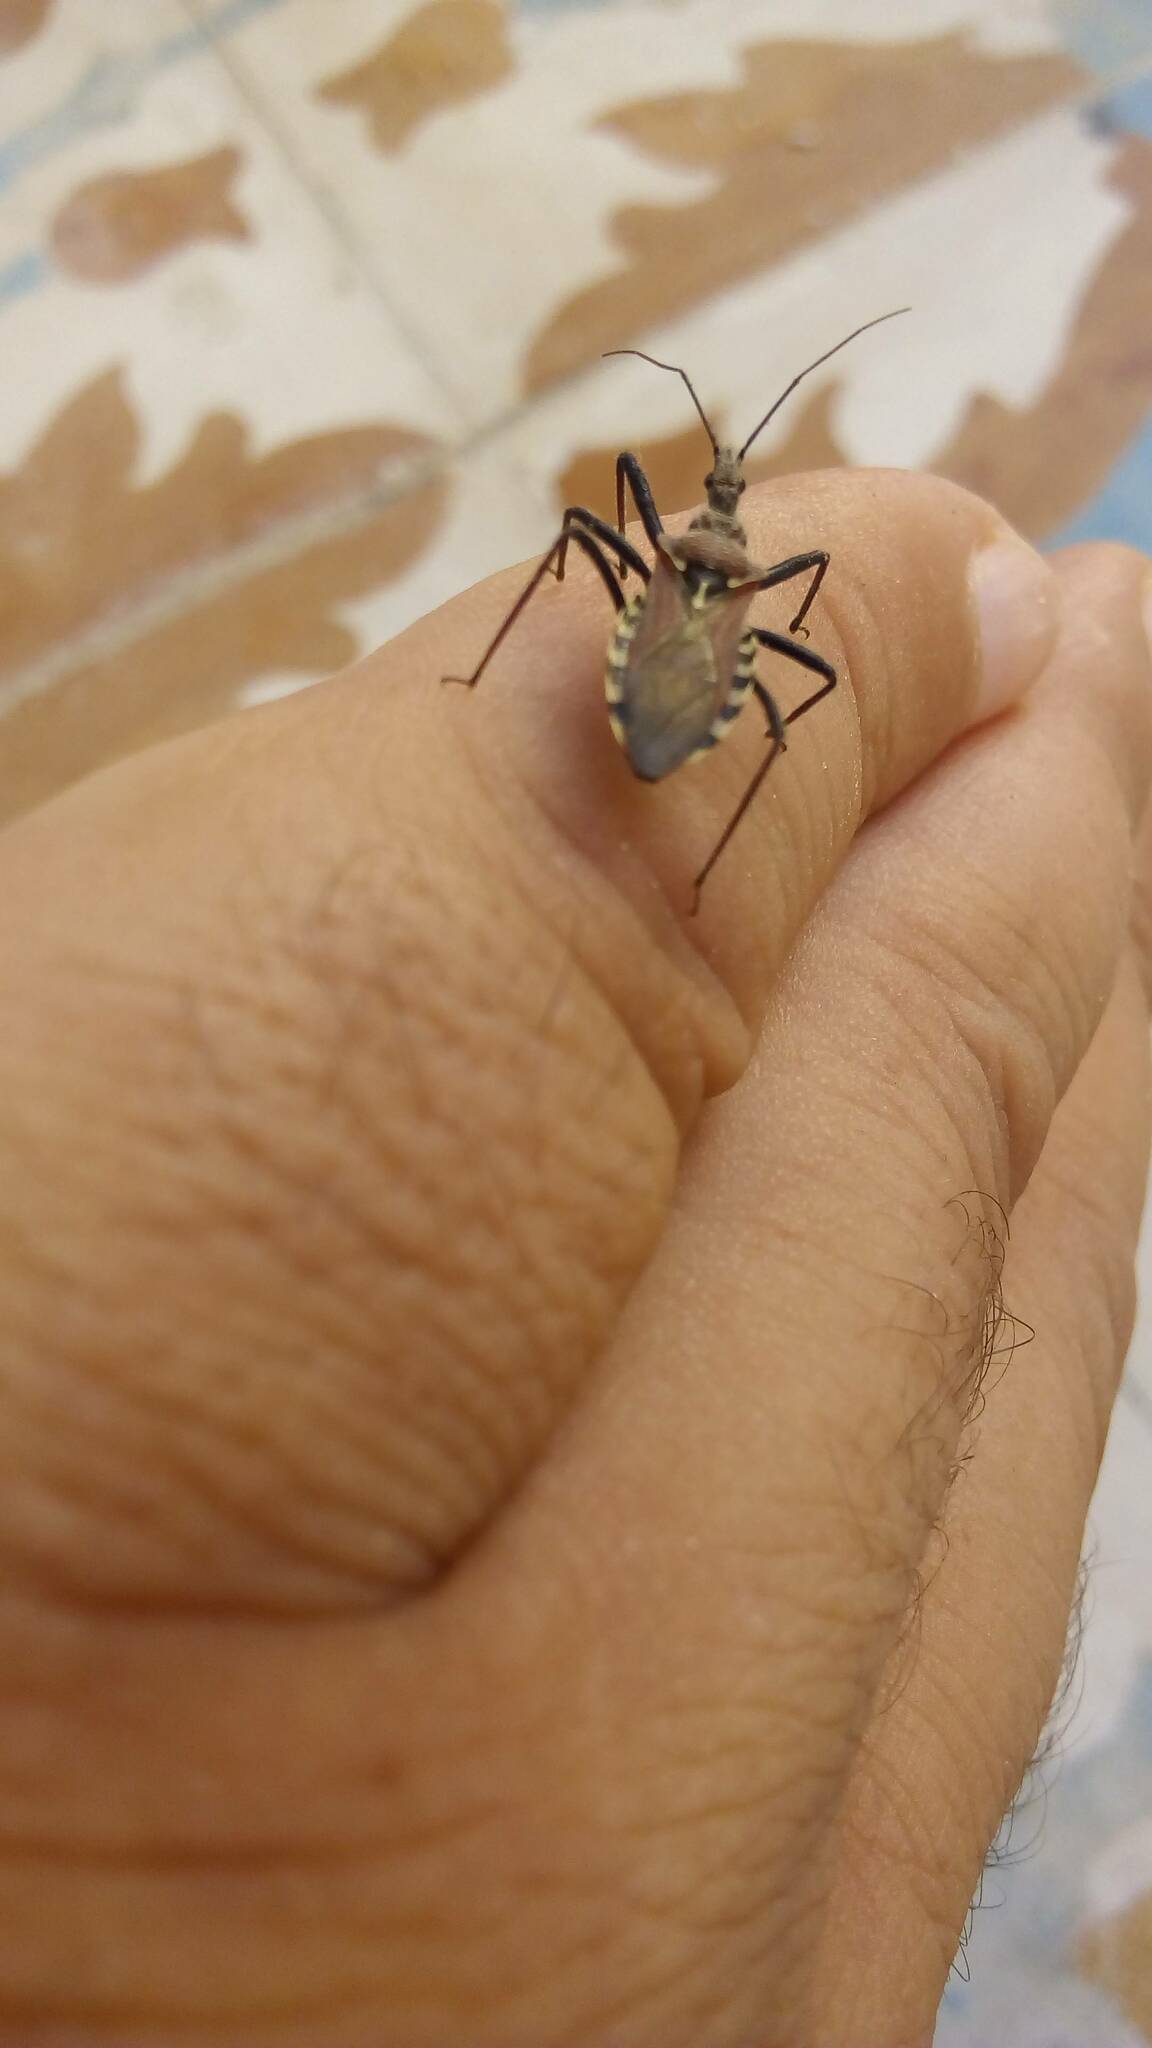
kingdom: Animalia
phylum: Arthropoda
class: Insecta
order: Hemiptera
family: Reduviidae
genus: Rhynocoris
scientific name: Rhynocoris erythropus
